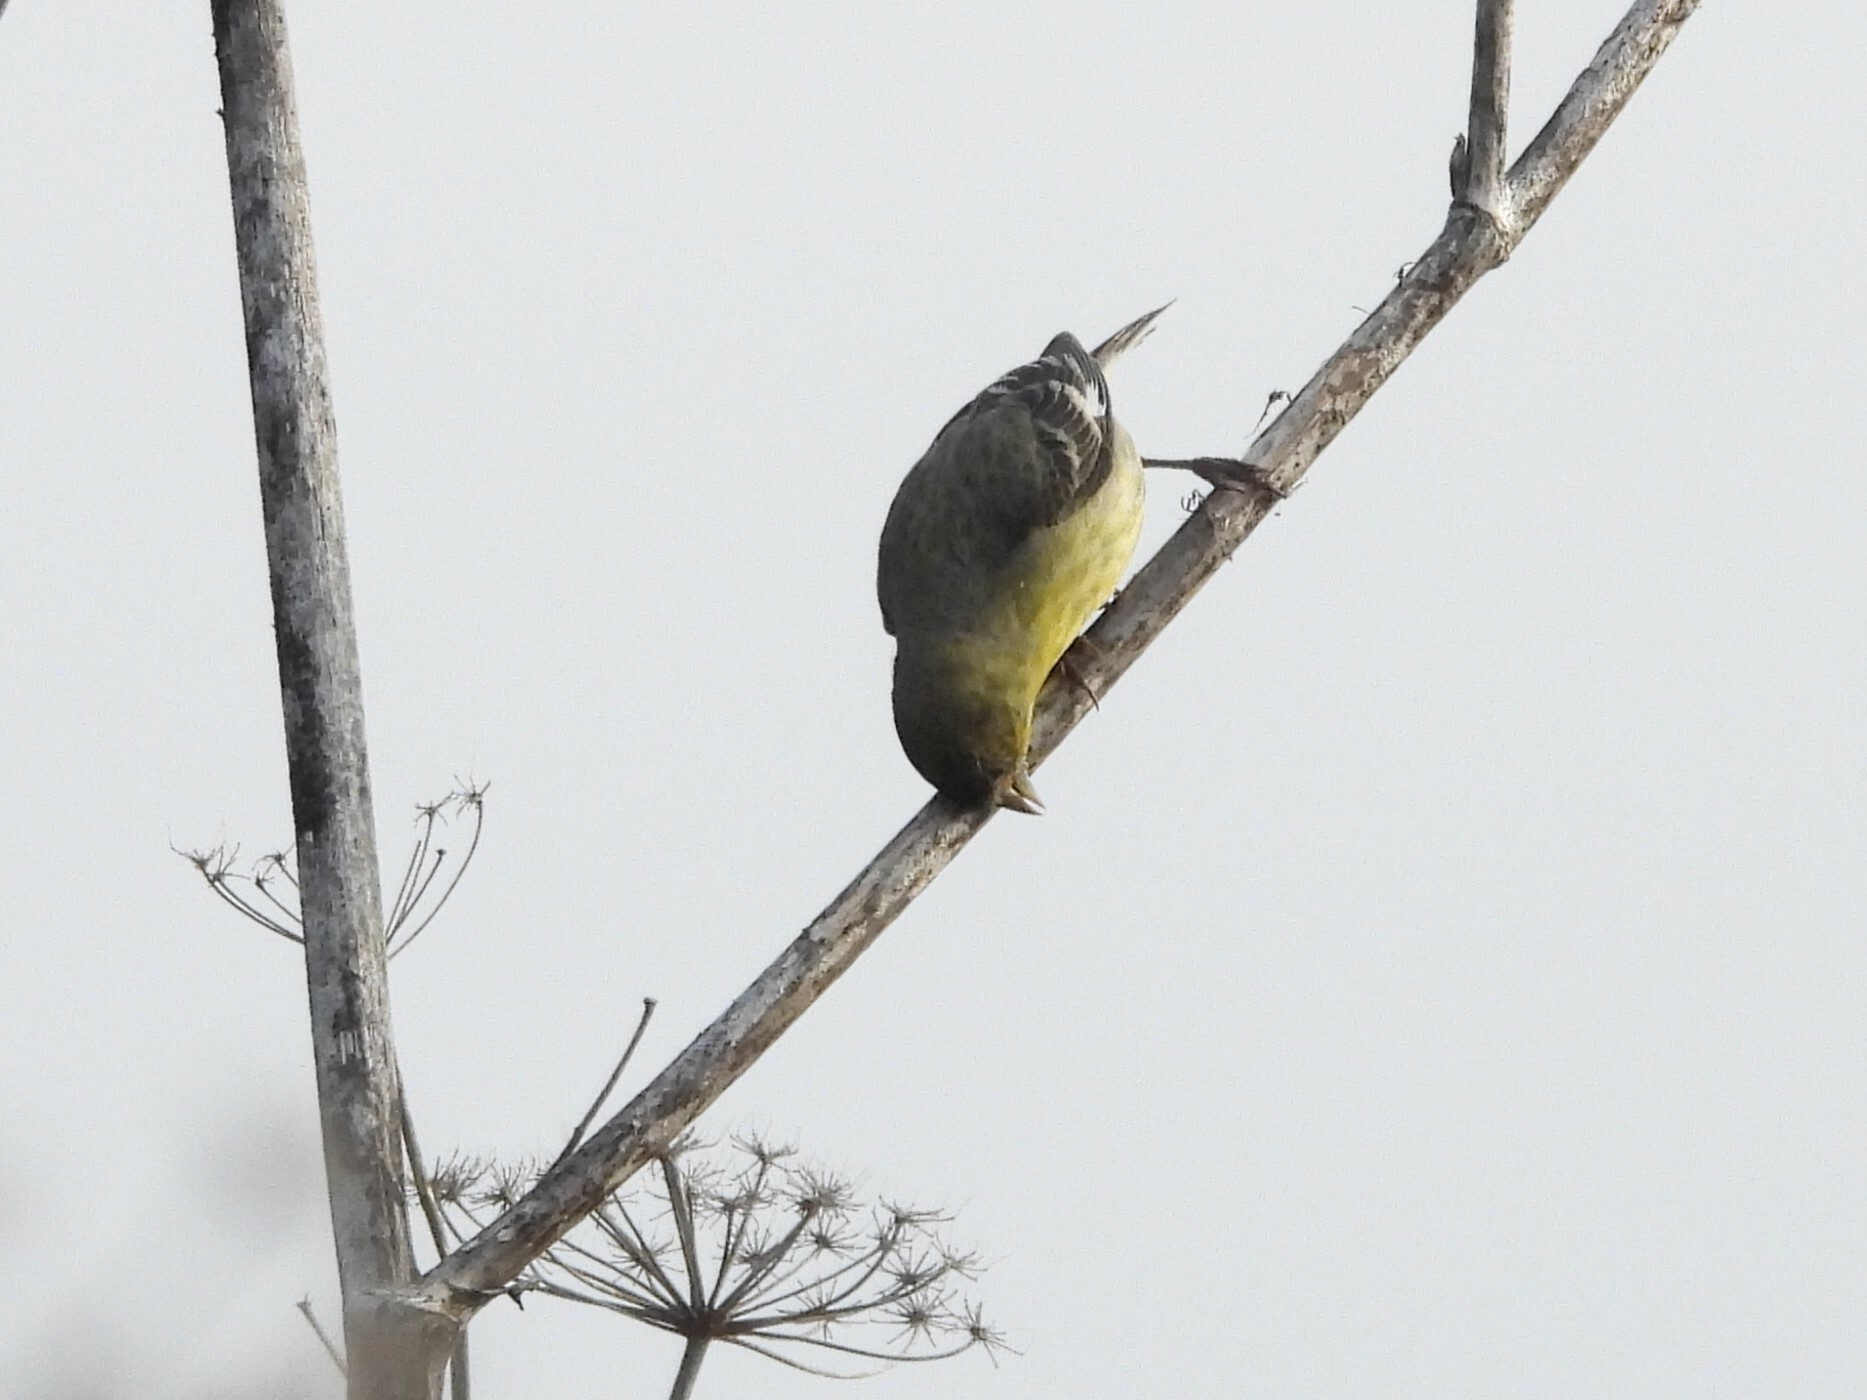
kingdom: Animalia
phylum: Chordata
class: Aves
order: Passeriformes
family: Fringillidae
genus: Spinus
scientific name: Spinus psaltria
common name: Lesser goldfinch
